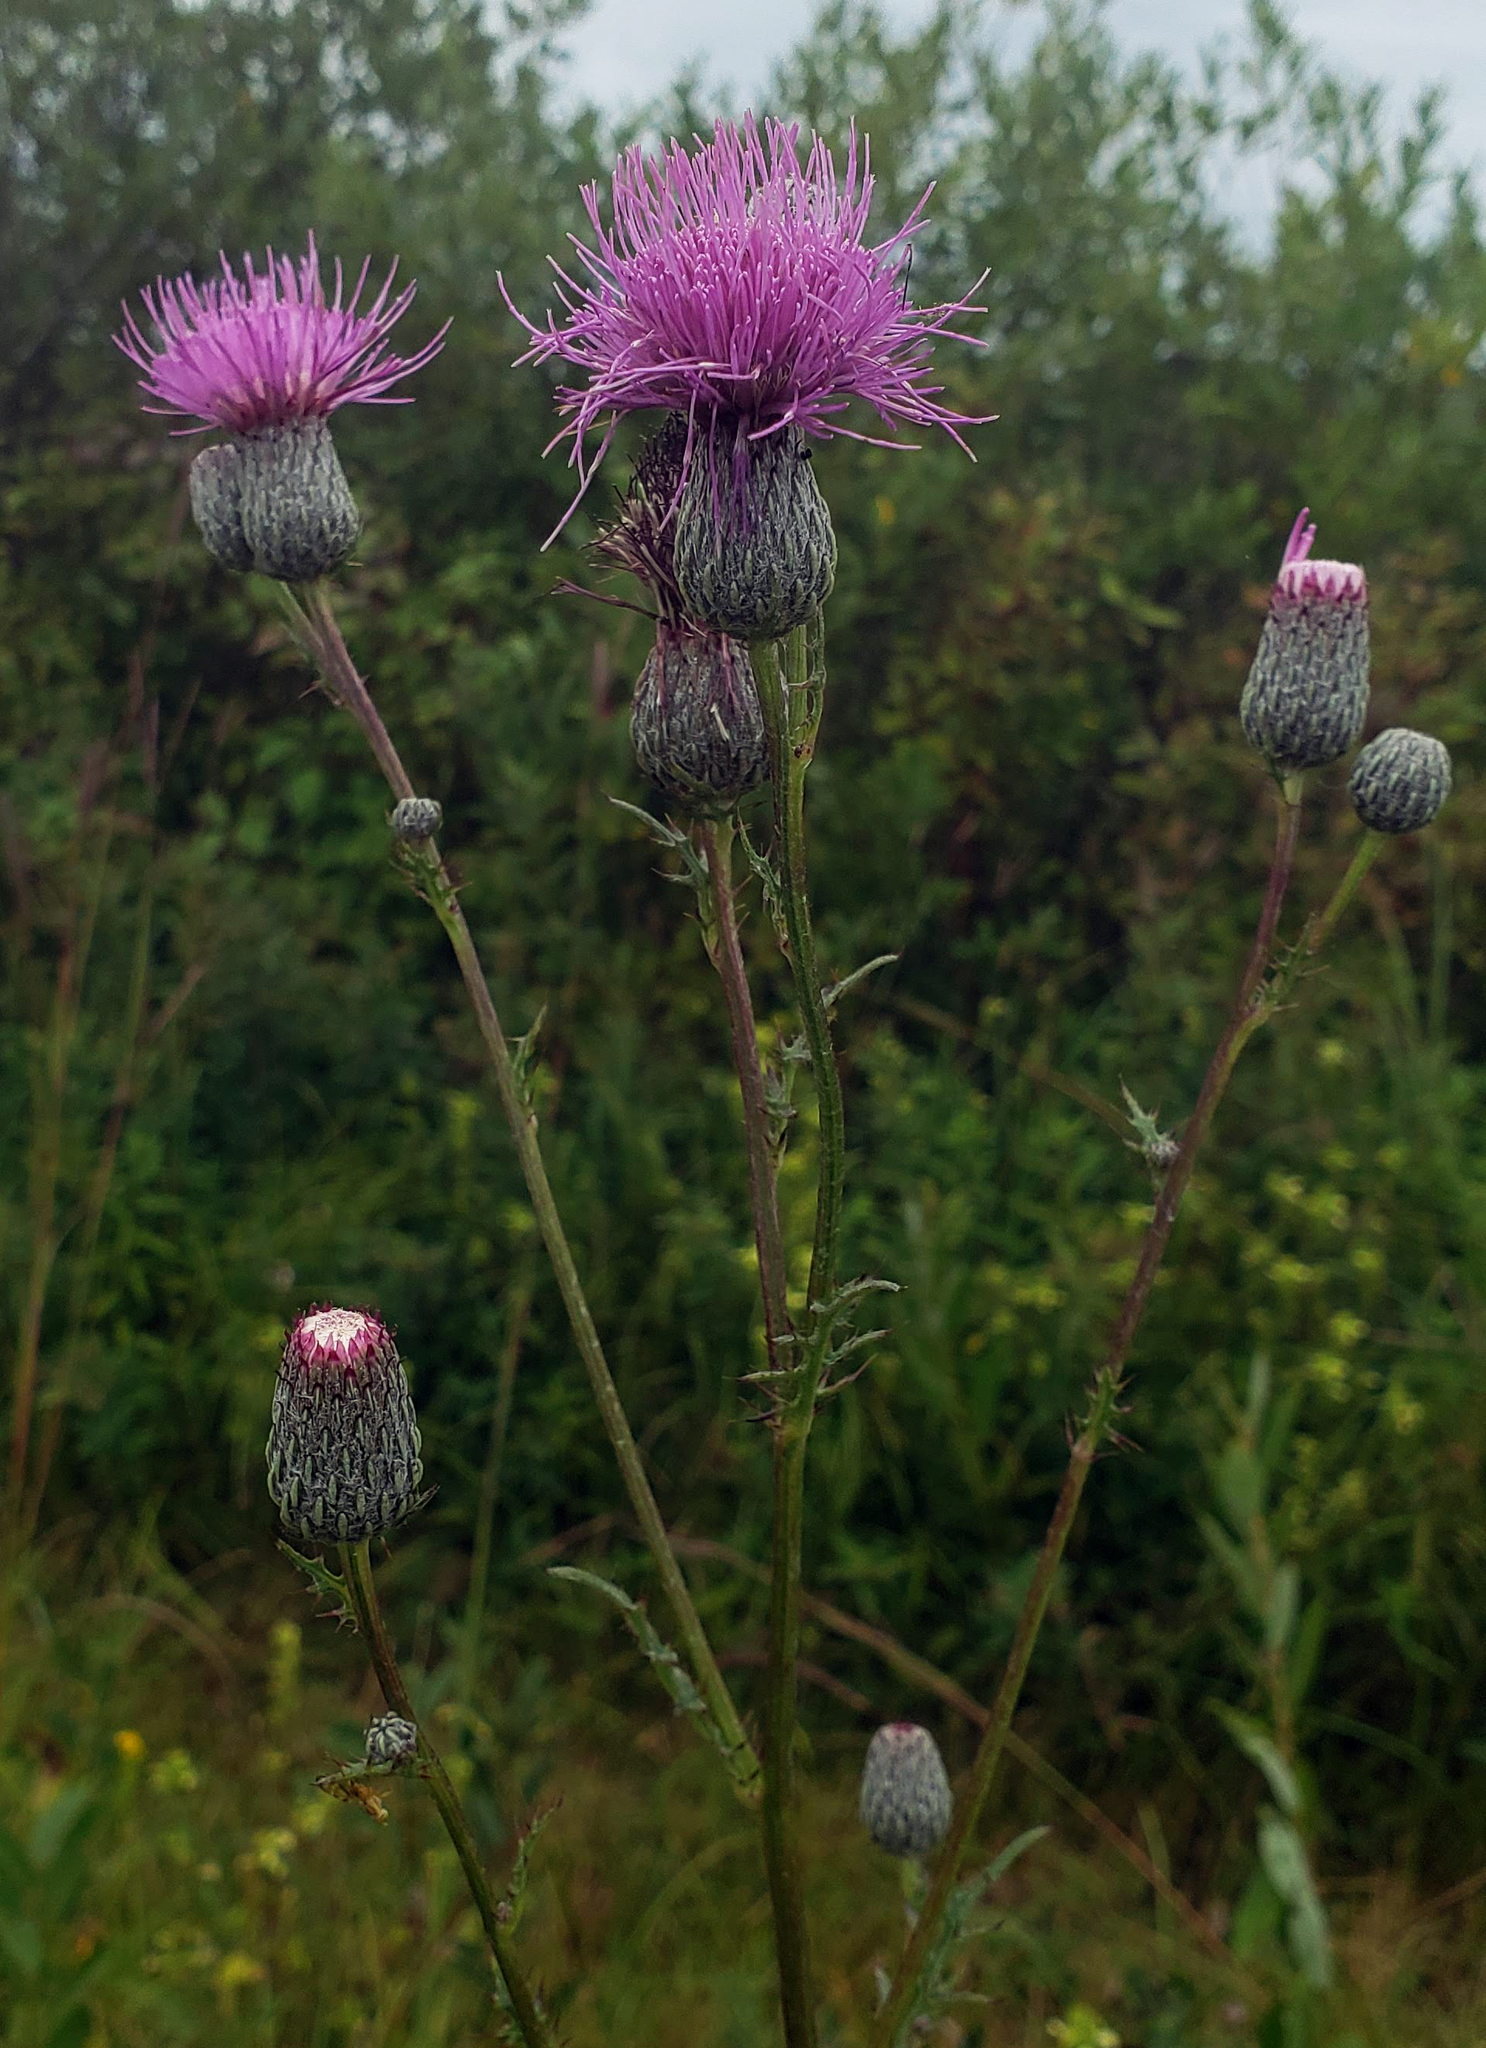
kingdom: Plantae
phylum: Tracheophyta
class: Magnoliopsida
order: Asterales
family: Asteraceae
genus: Cirsium
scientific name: Cirsium muticum
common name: Dunce-nettle
